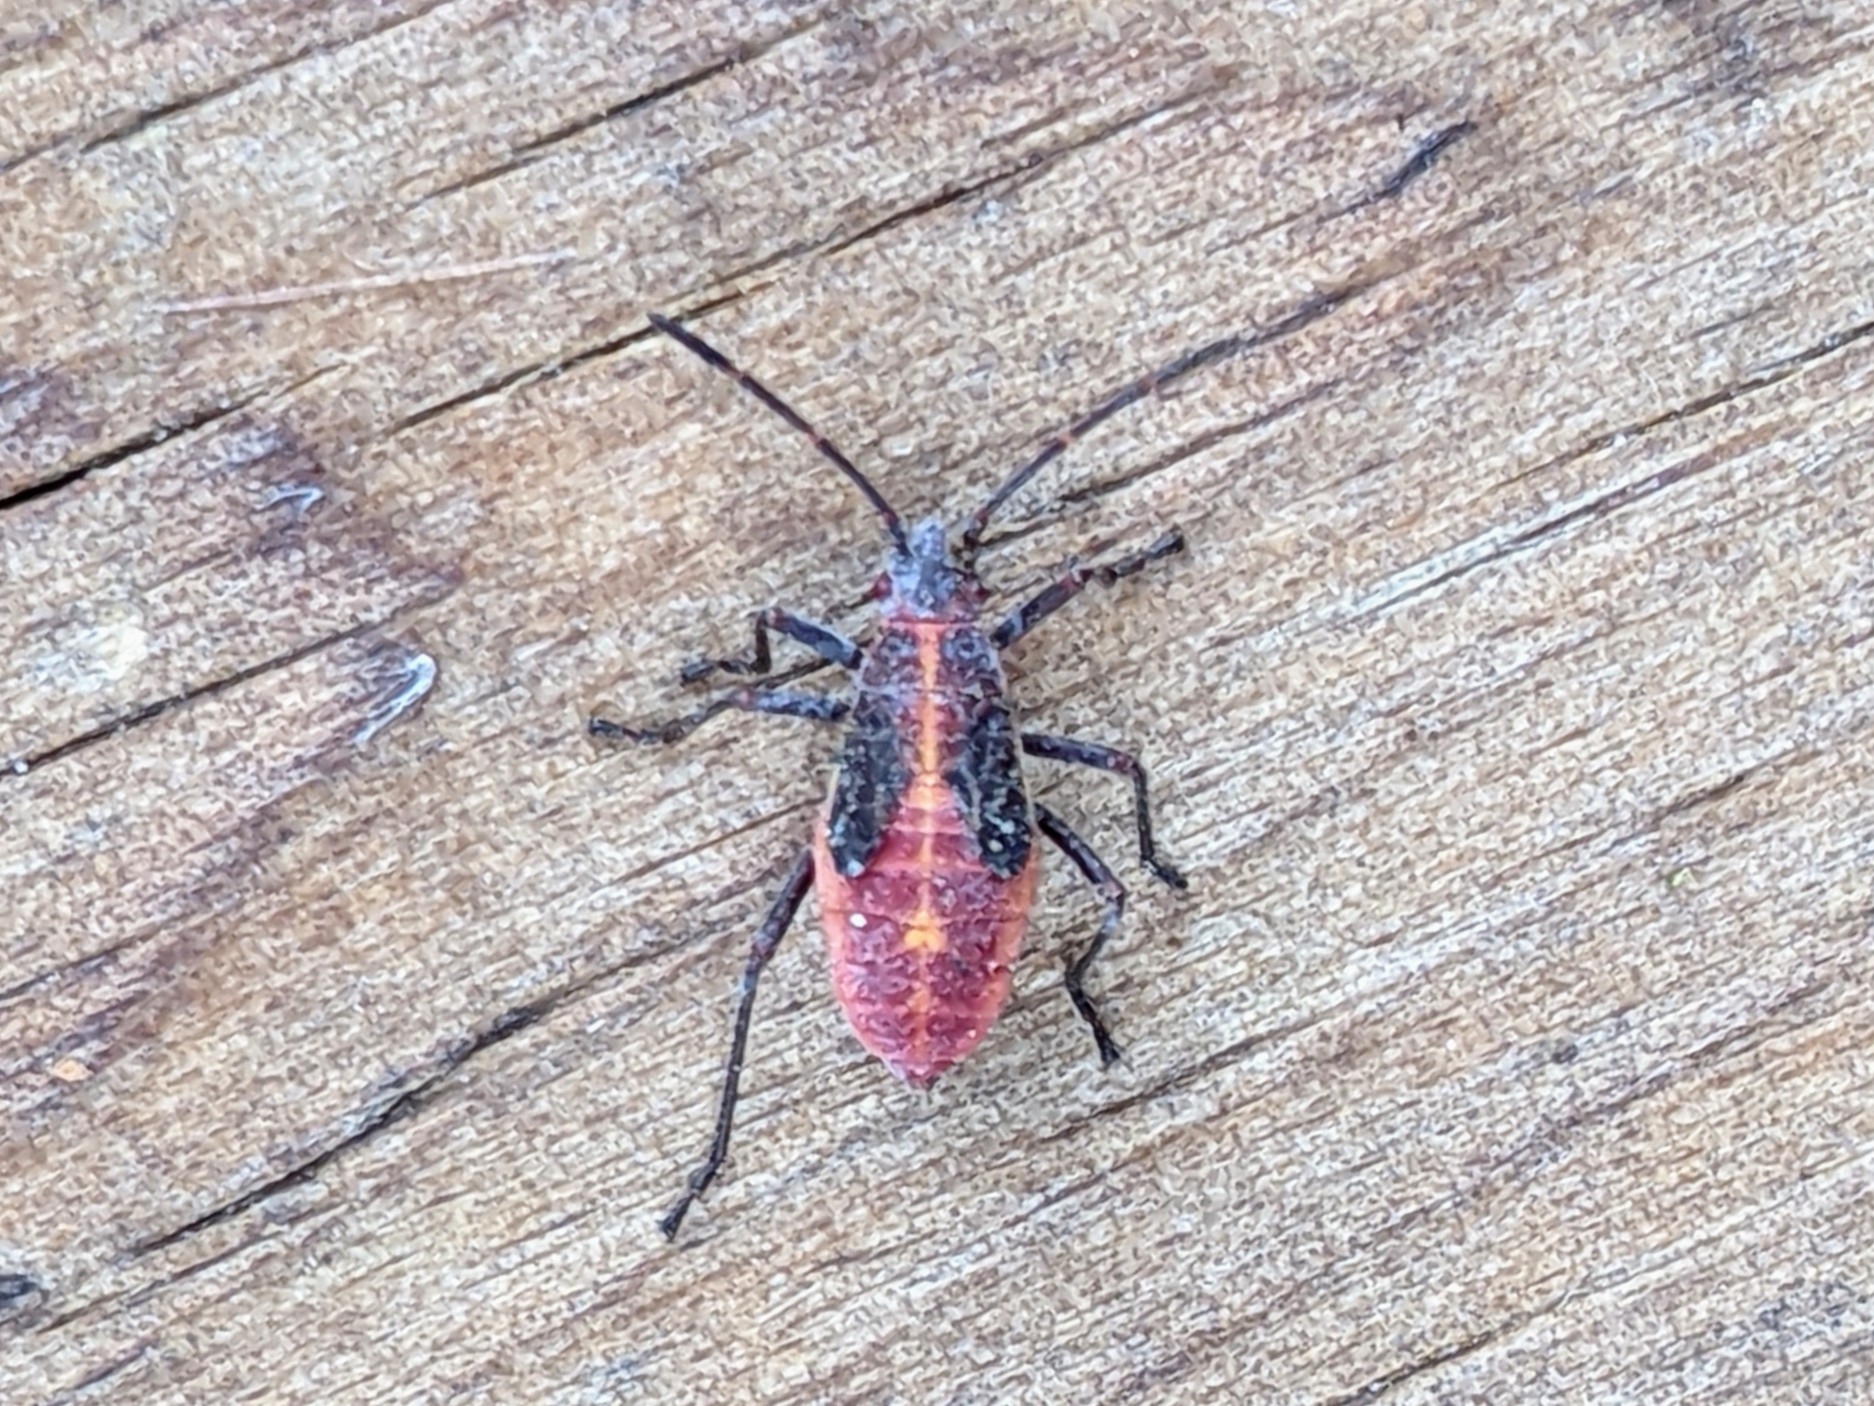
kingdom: Animalia
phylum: Arthropoda
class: Insecta
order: Hemiptera
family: Rhopalidae
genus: Boisea
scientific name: Boisea trivittata
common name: Boxelder bug
